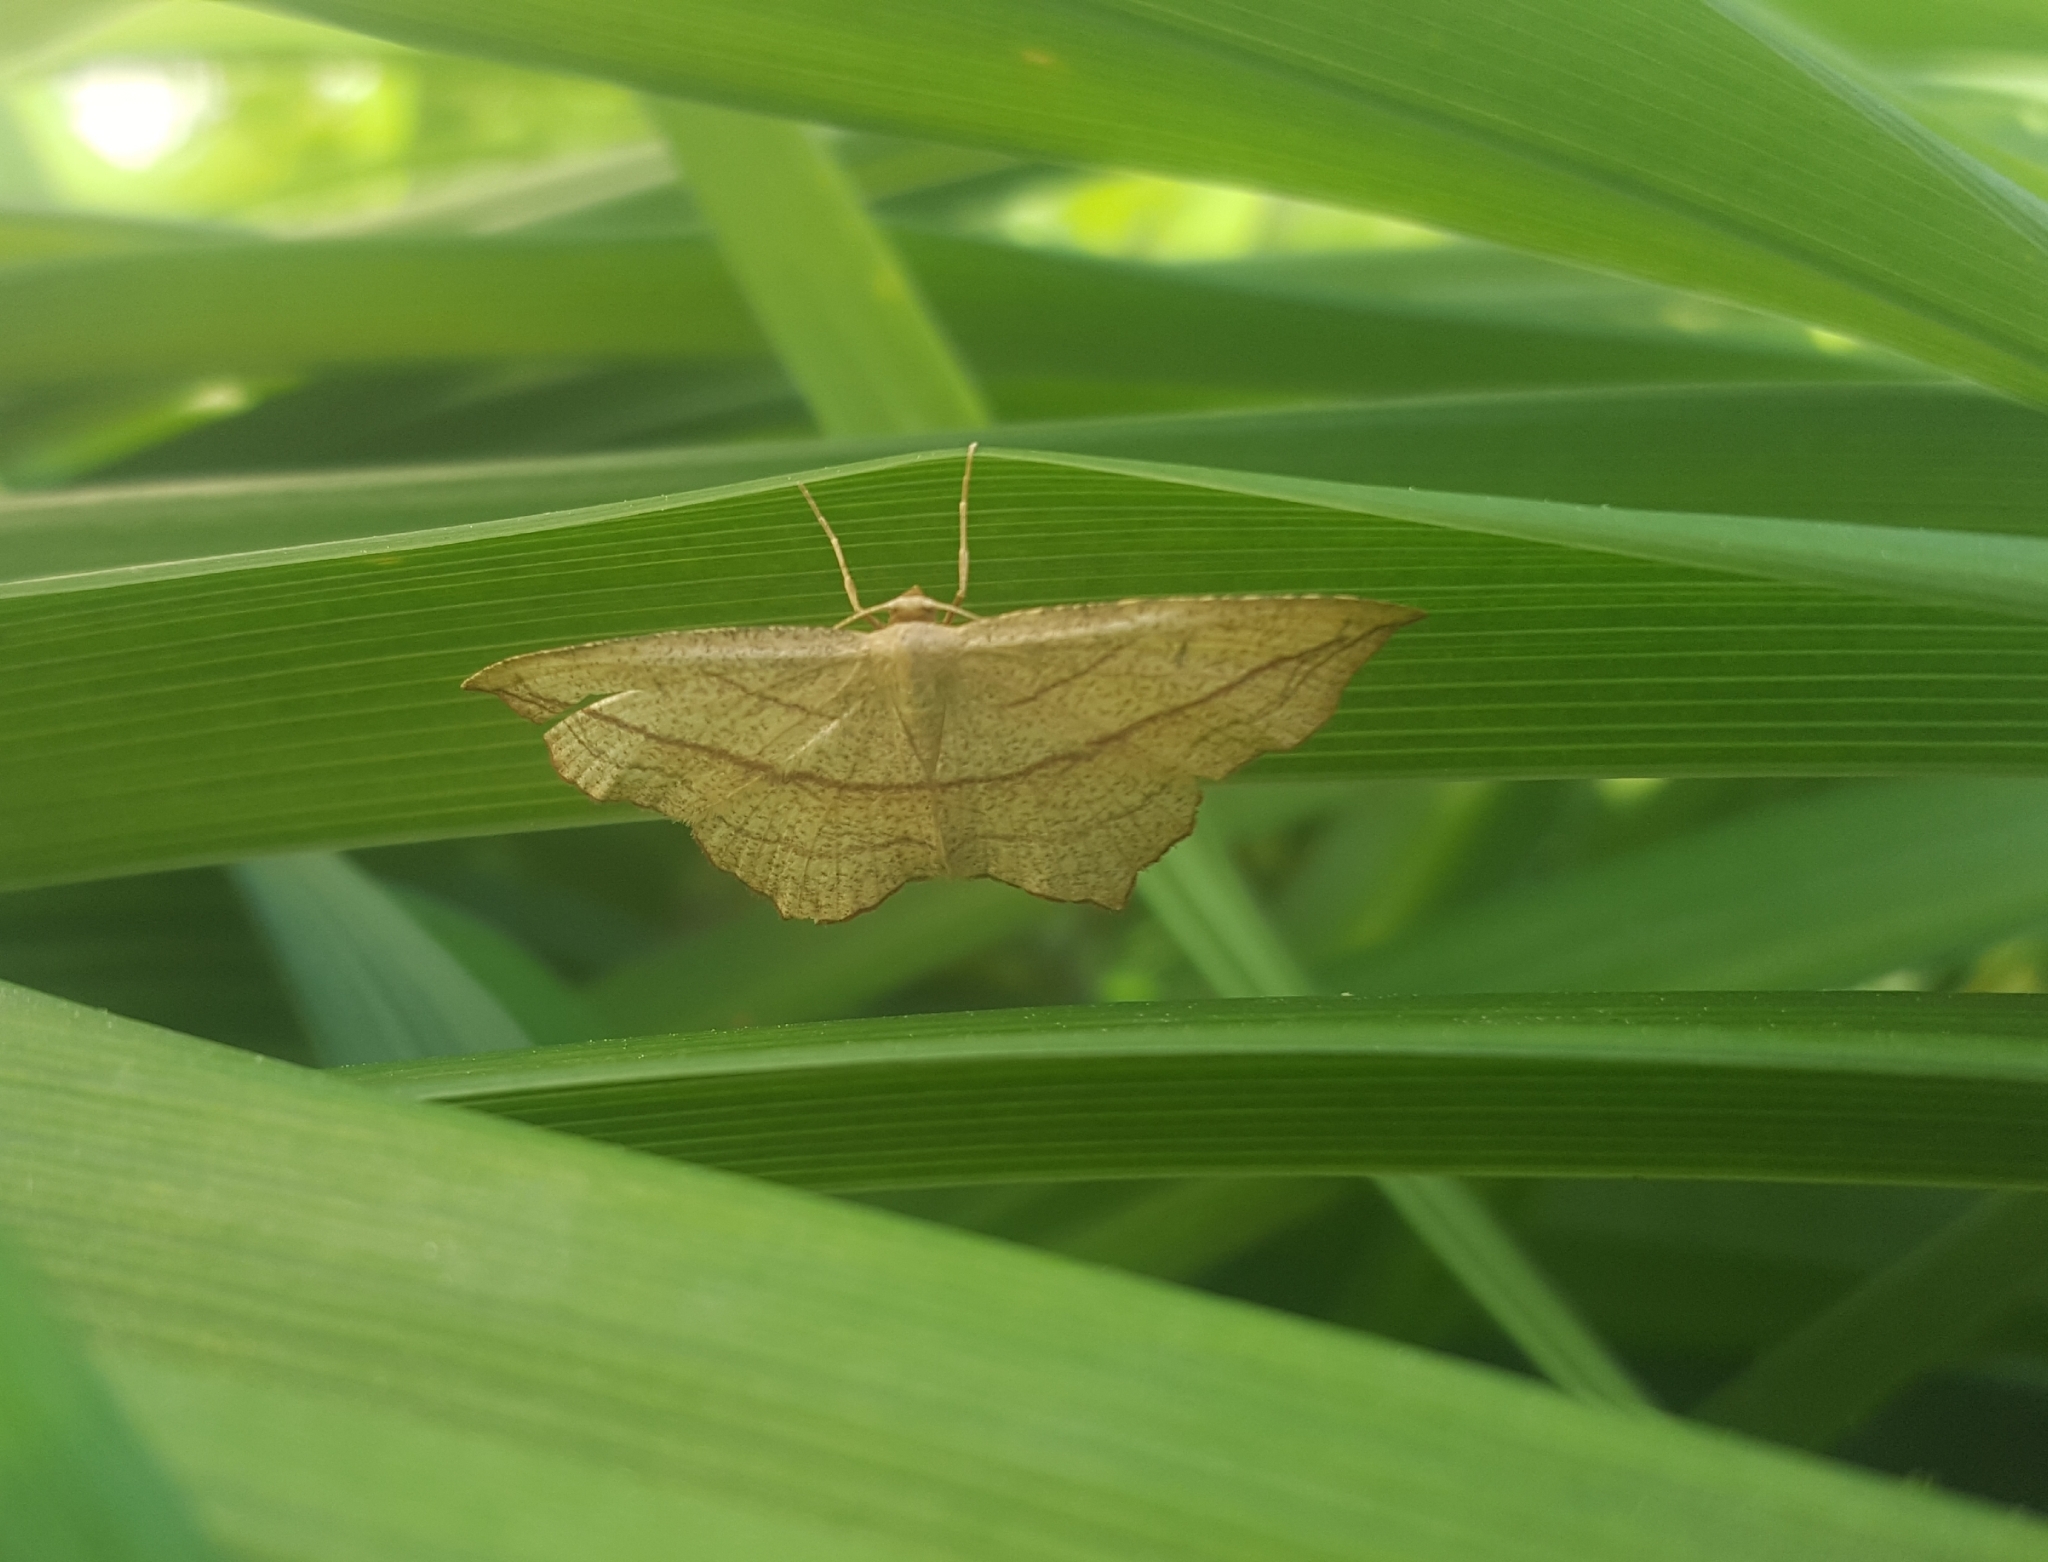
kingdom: Animalia
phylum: Arthropoda
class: Insecta
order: Lepidoptera
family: Geometridae
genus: Timandra
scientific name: Timandra amaturaria
